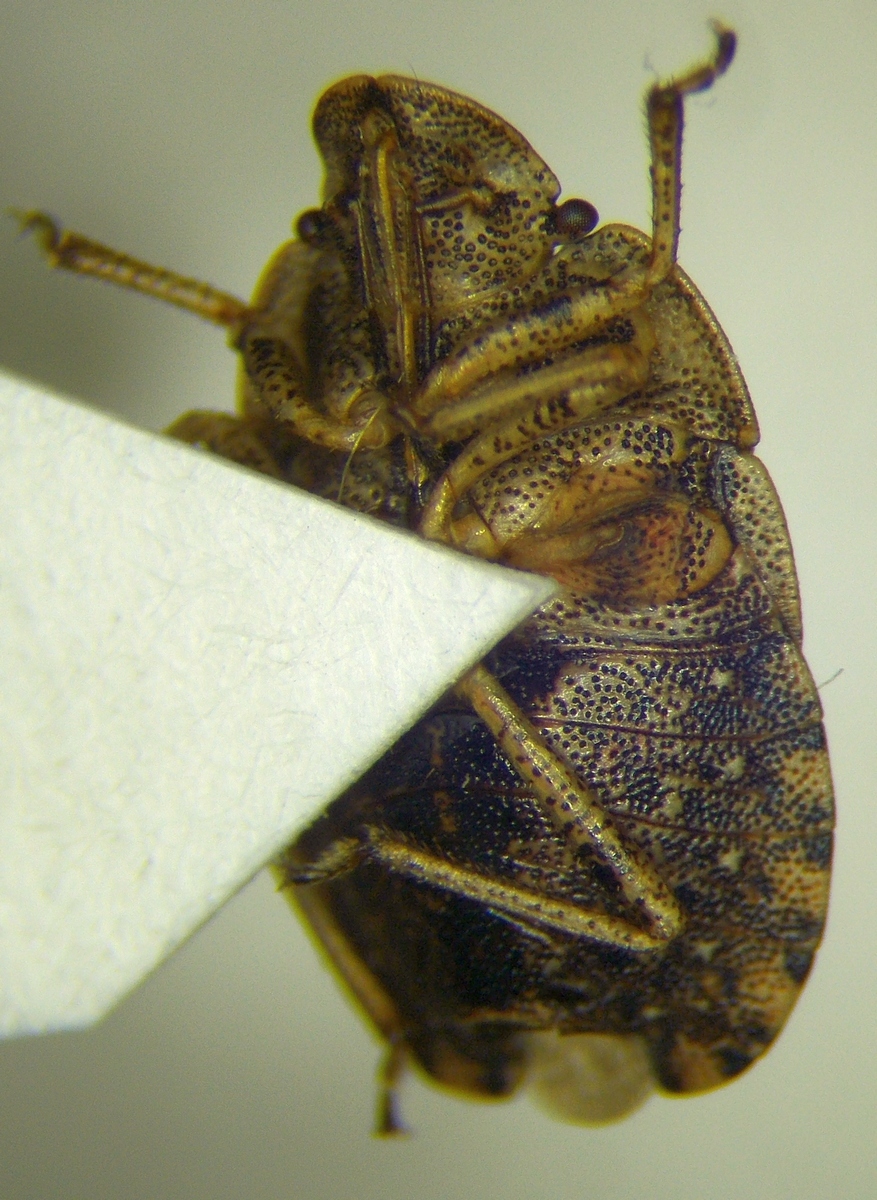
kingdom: Animalia
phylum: Arthropoda
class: Insecta
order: Hemiptera
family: Pentatomidae
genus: Sciocoris
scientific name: Sciocoris macrocephalus
